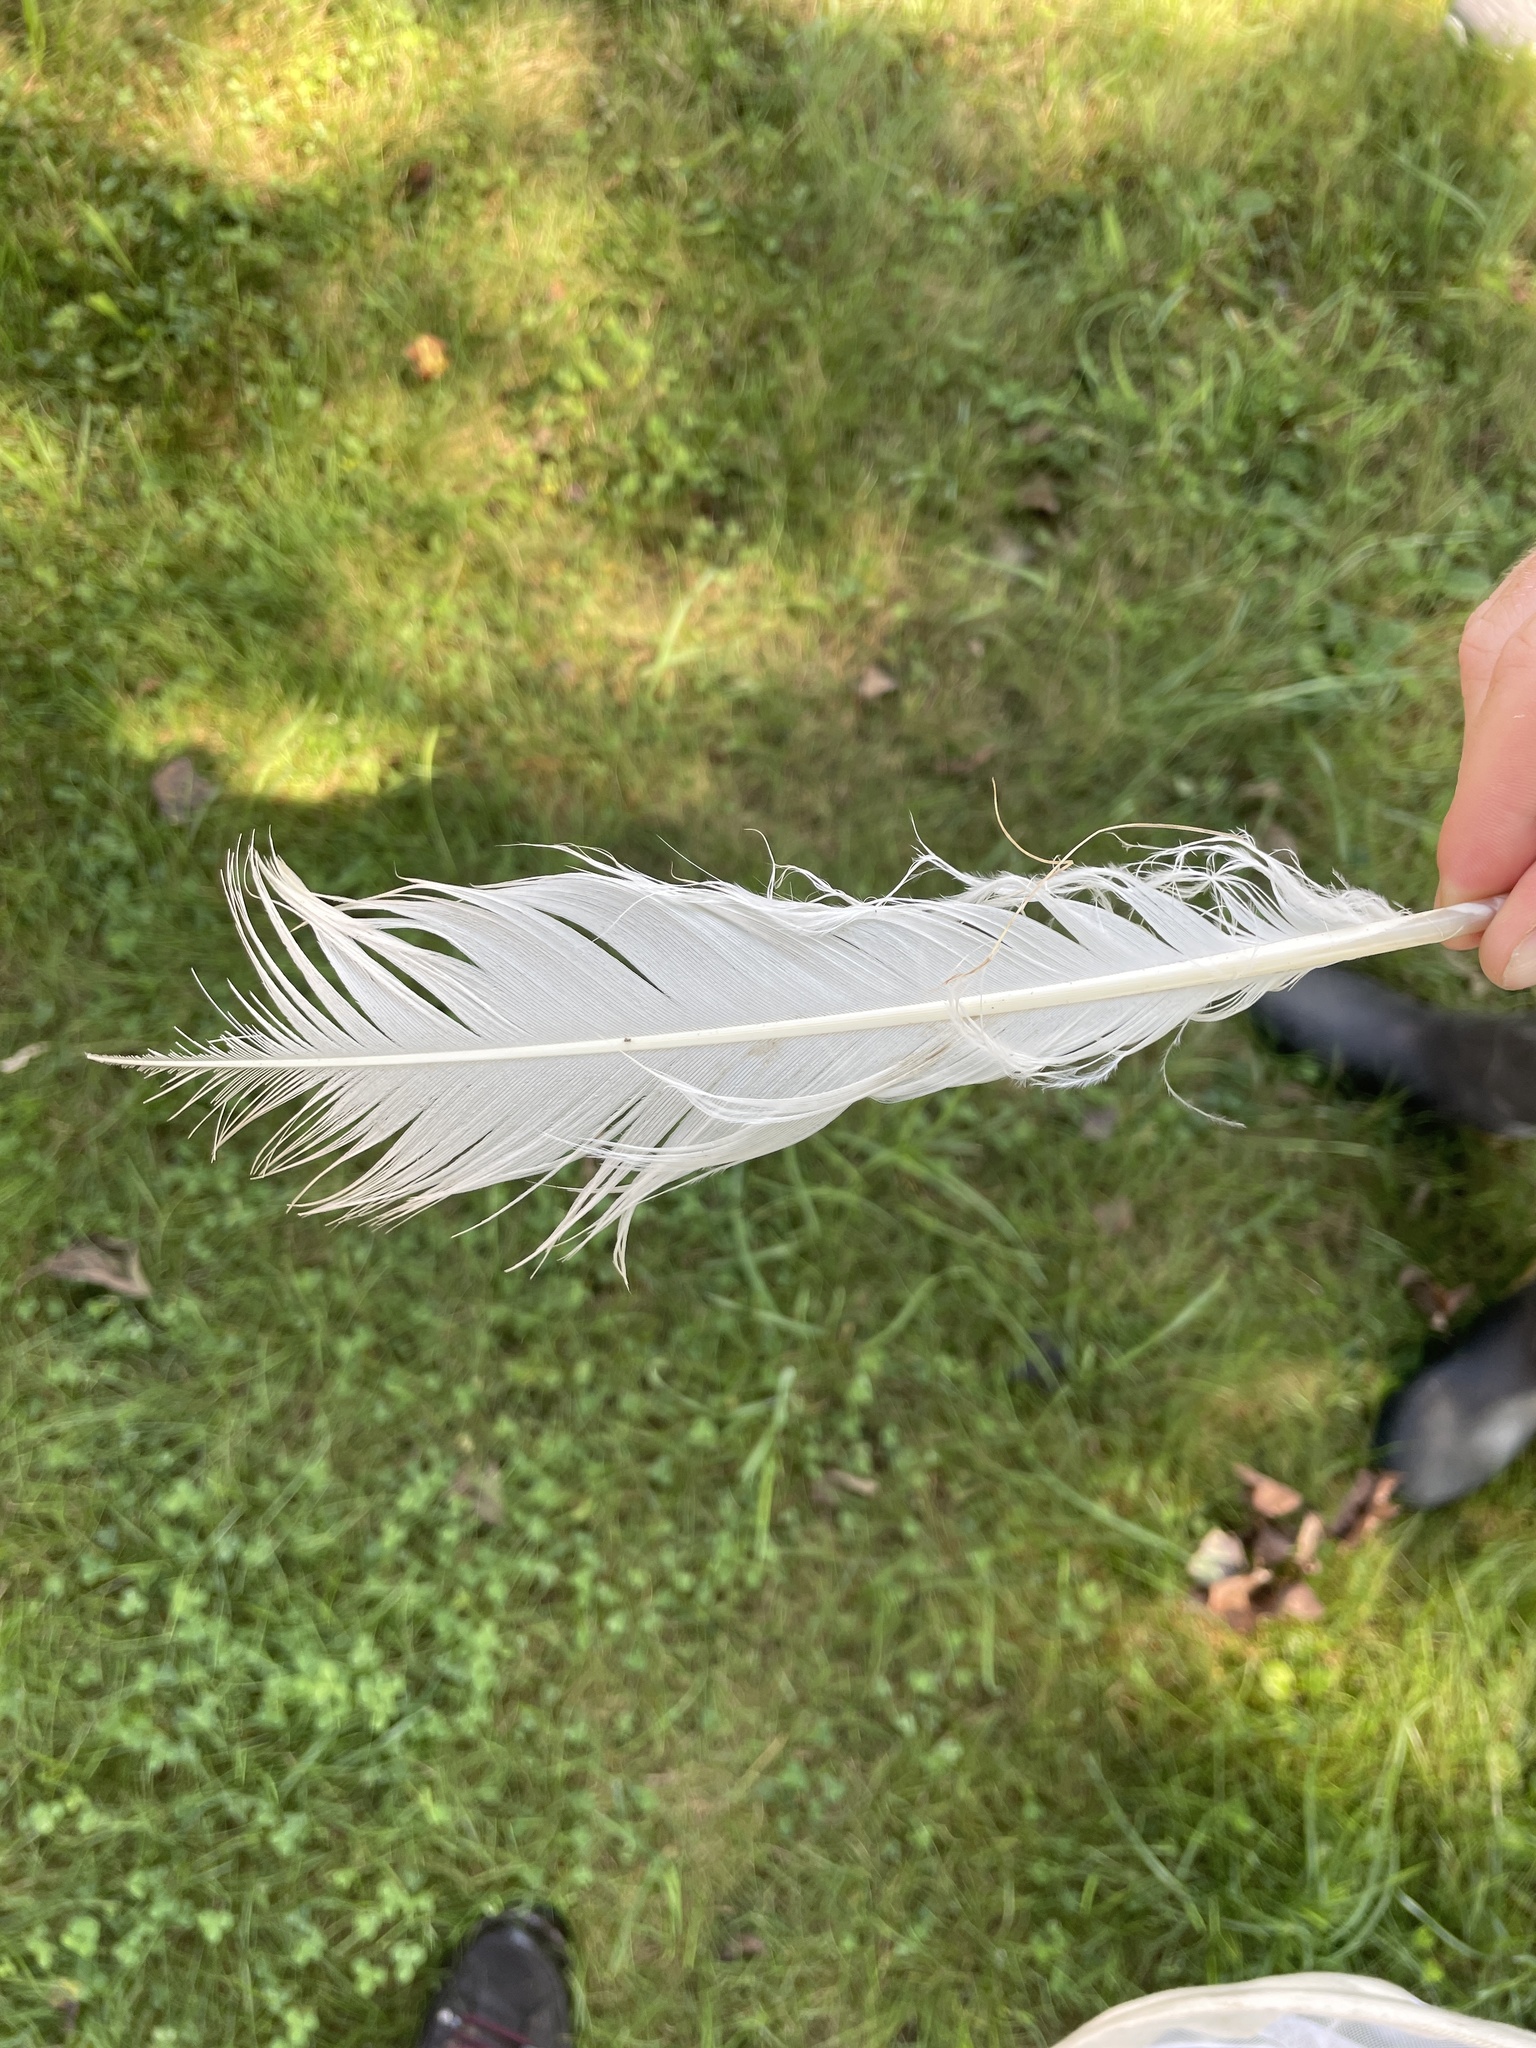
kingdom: Animalia
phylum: Chordata
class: Aves
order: Anseriformes
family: Anatidae
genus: Cygnus
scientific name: Cygnus buccinator
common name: Trumpeter swan
